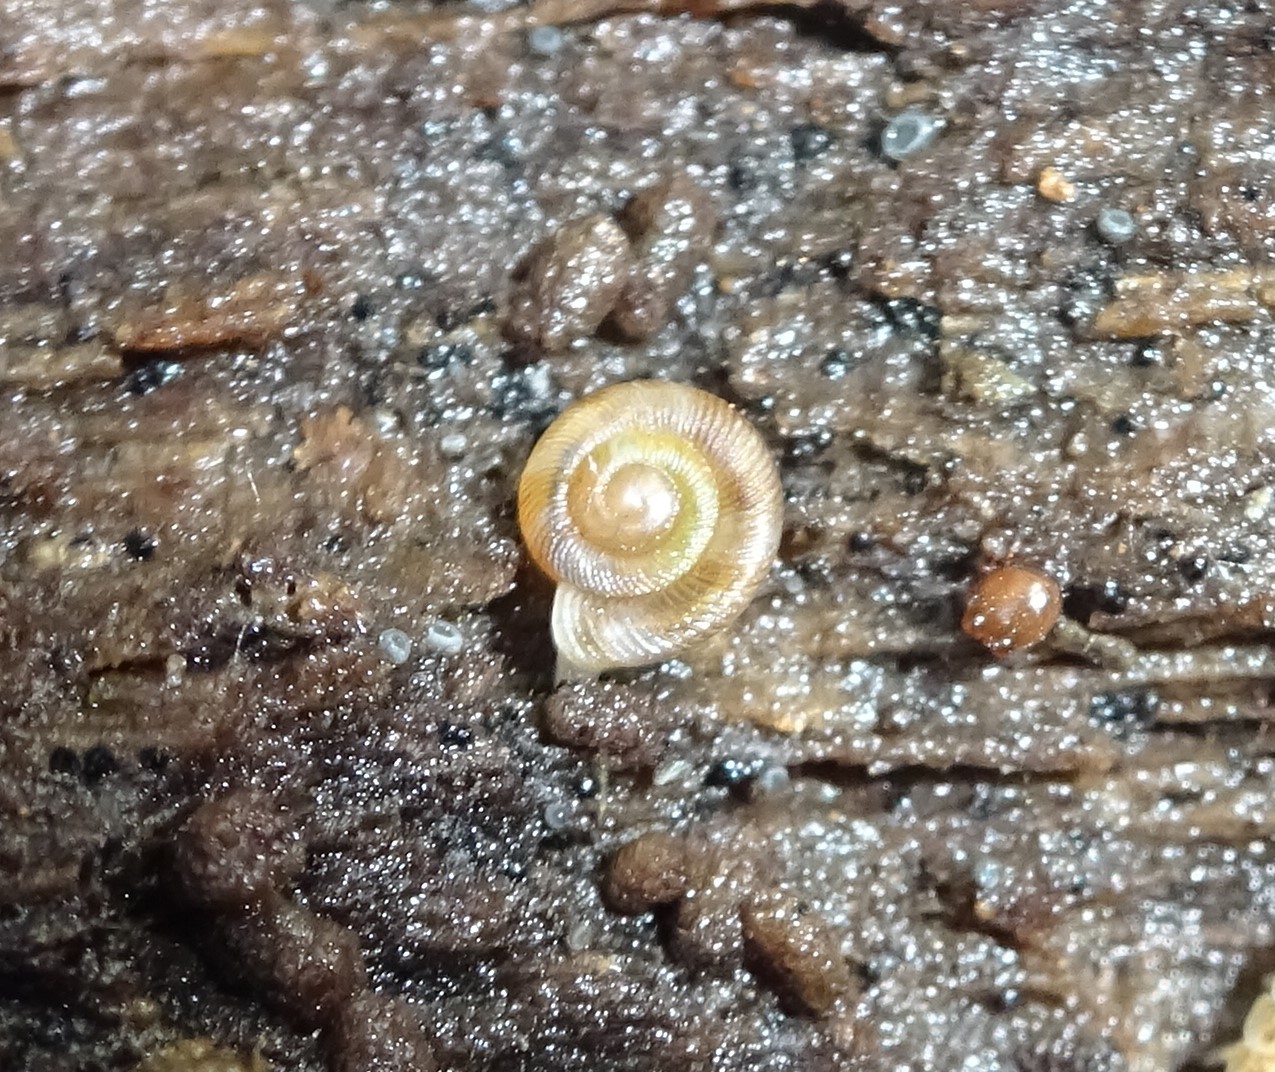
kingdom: Animalia
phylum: Mollusca
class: Gastropoda
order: Stylommatophora
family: Discidae
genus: Discus
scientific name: Discus rotundatus
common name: Rounded snail
